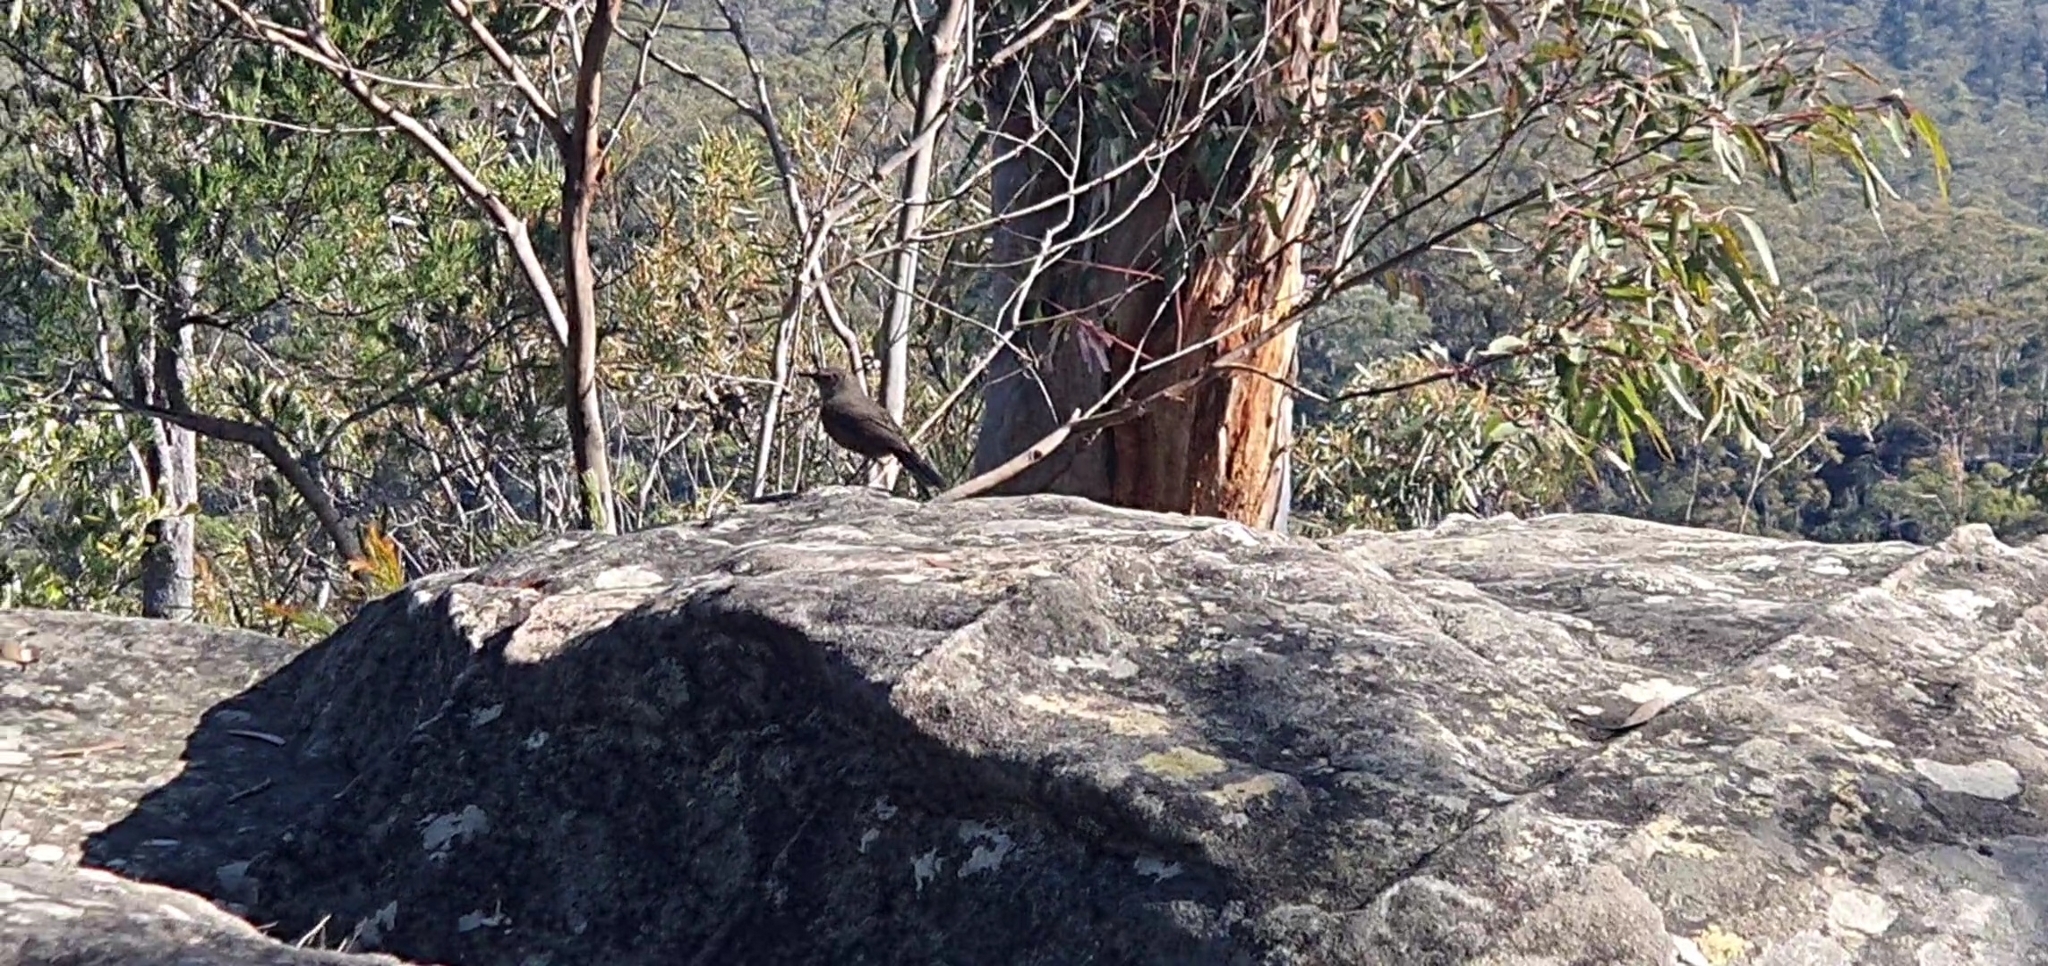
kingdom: Animalia
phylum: Chordata
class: Aves
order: Passeriformes
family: Acanthizidae
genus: Origma
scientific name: Origma solitaria
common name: Rockwarbler
